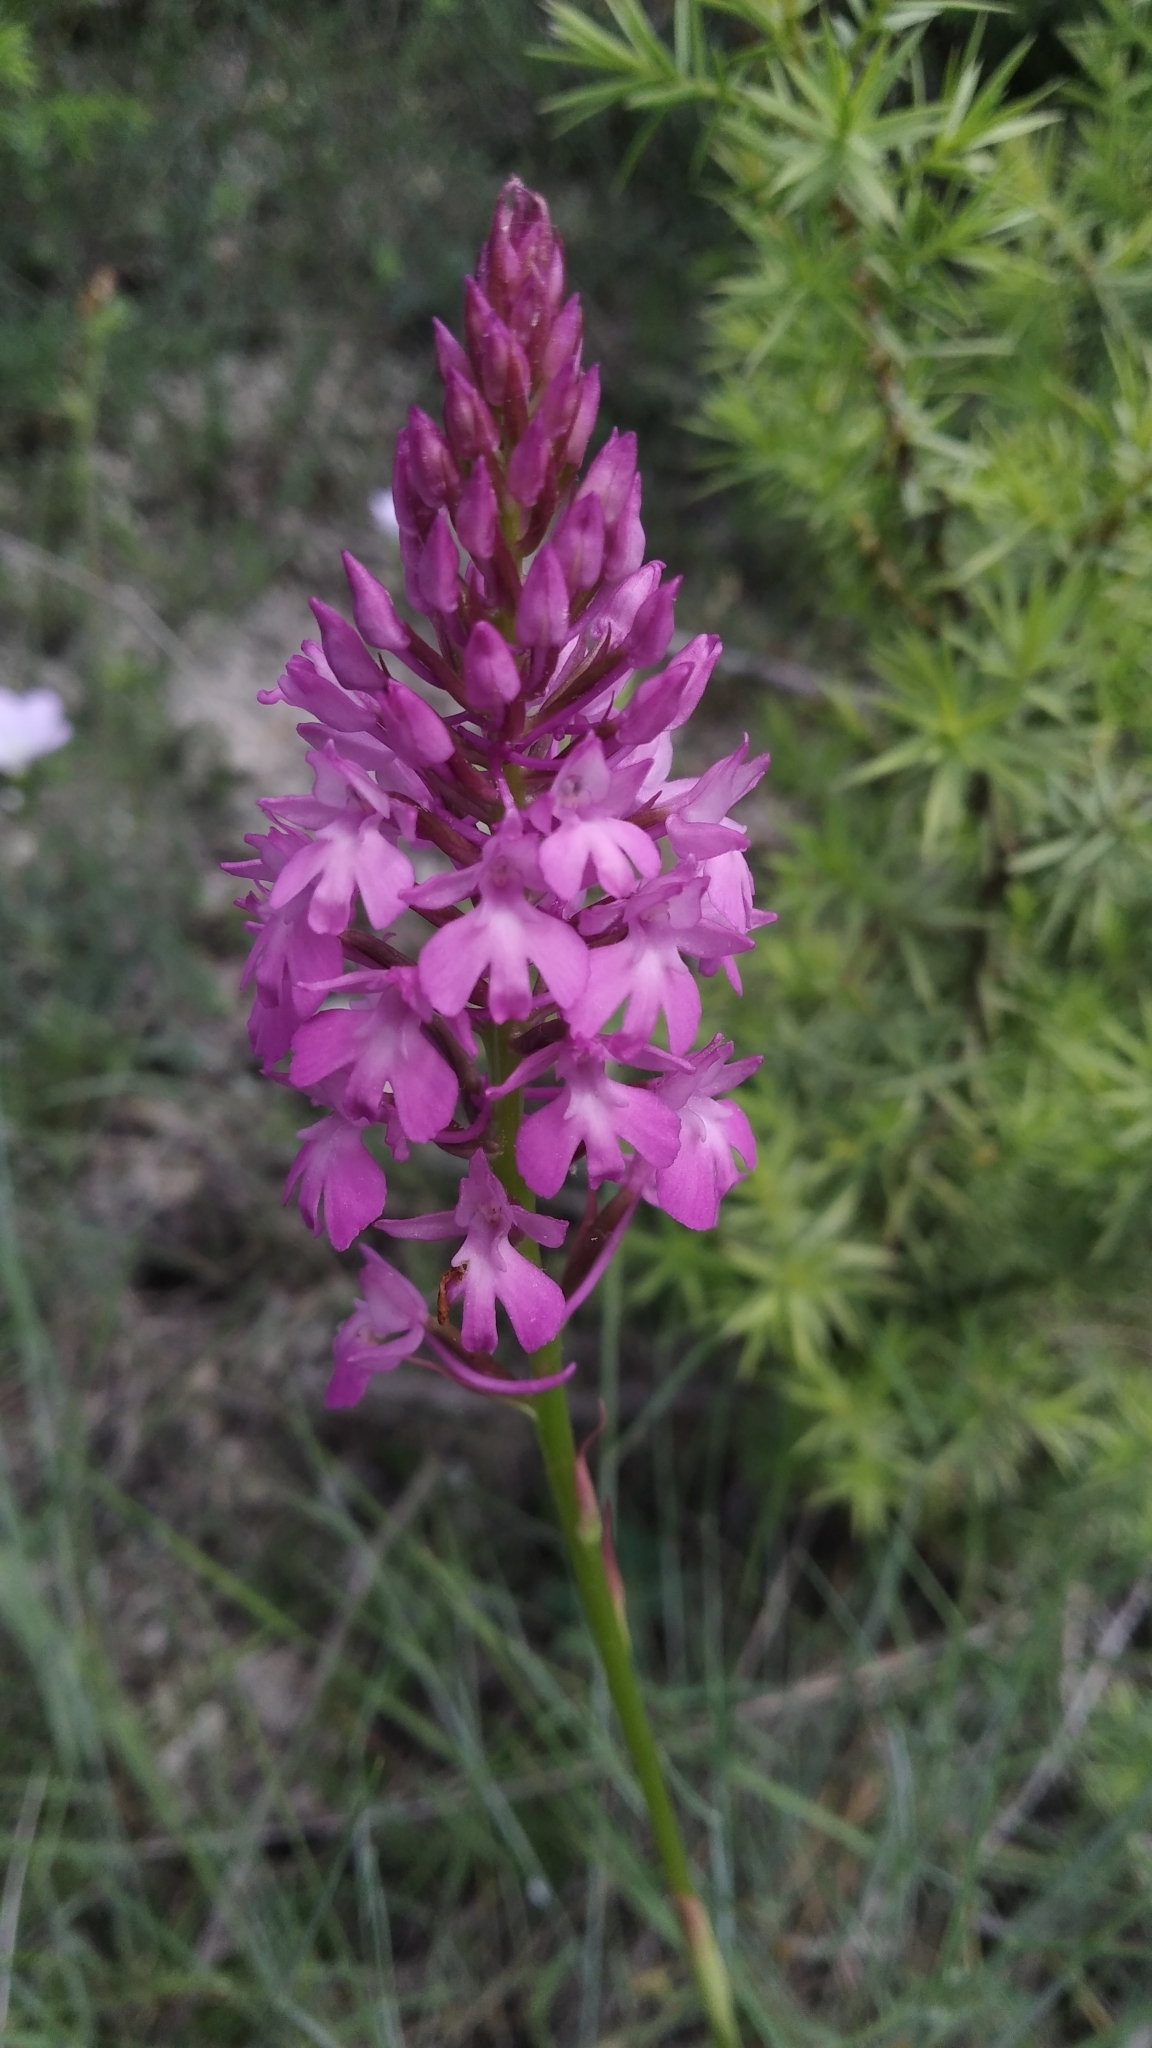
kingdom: Plantae
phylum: Tracheophyta
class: Liliopsida
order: Asparagales
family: Orchidaceae
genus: Anacamptis
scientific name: Anacamptis pyramidalis
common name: Pyramidal orchid
